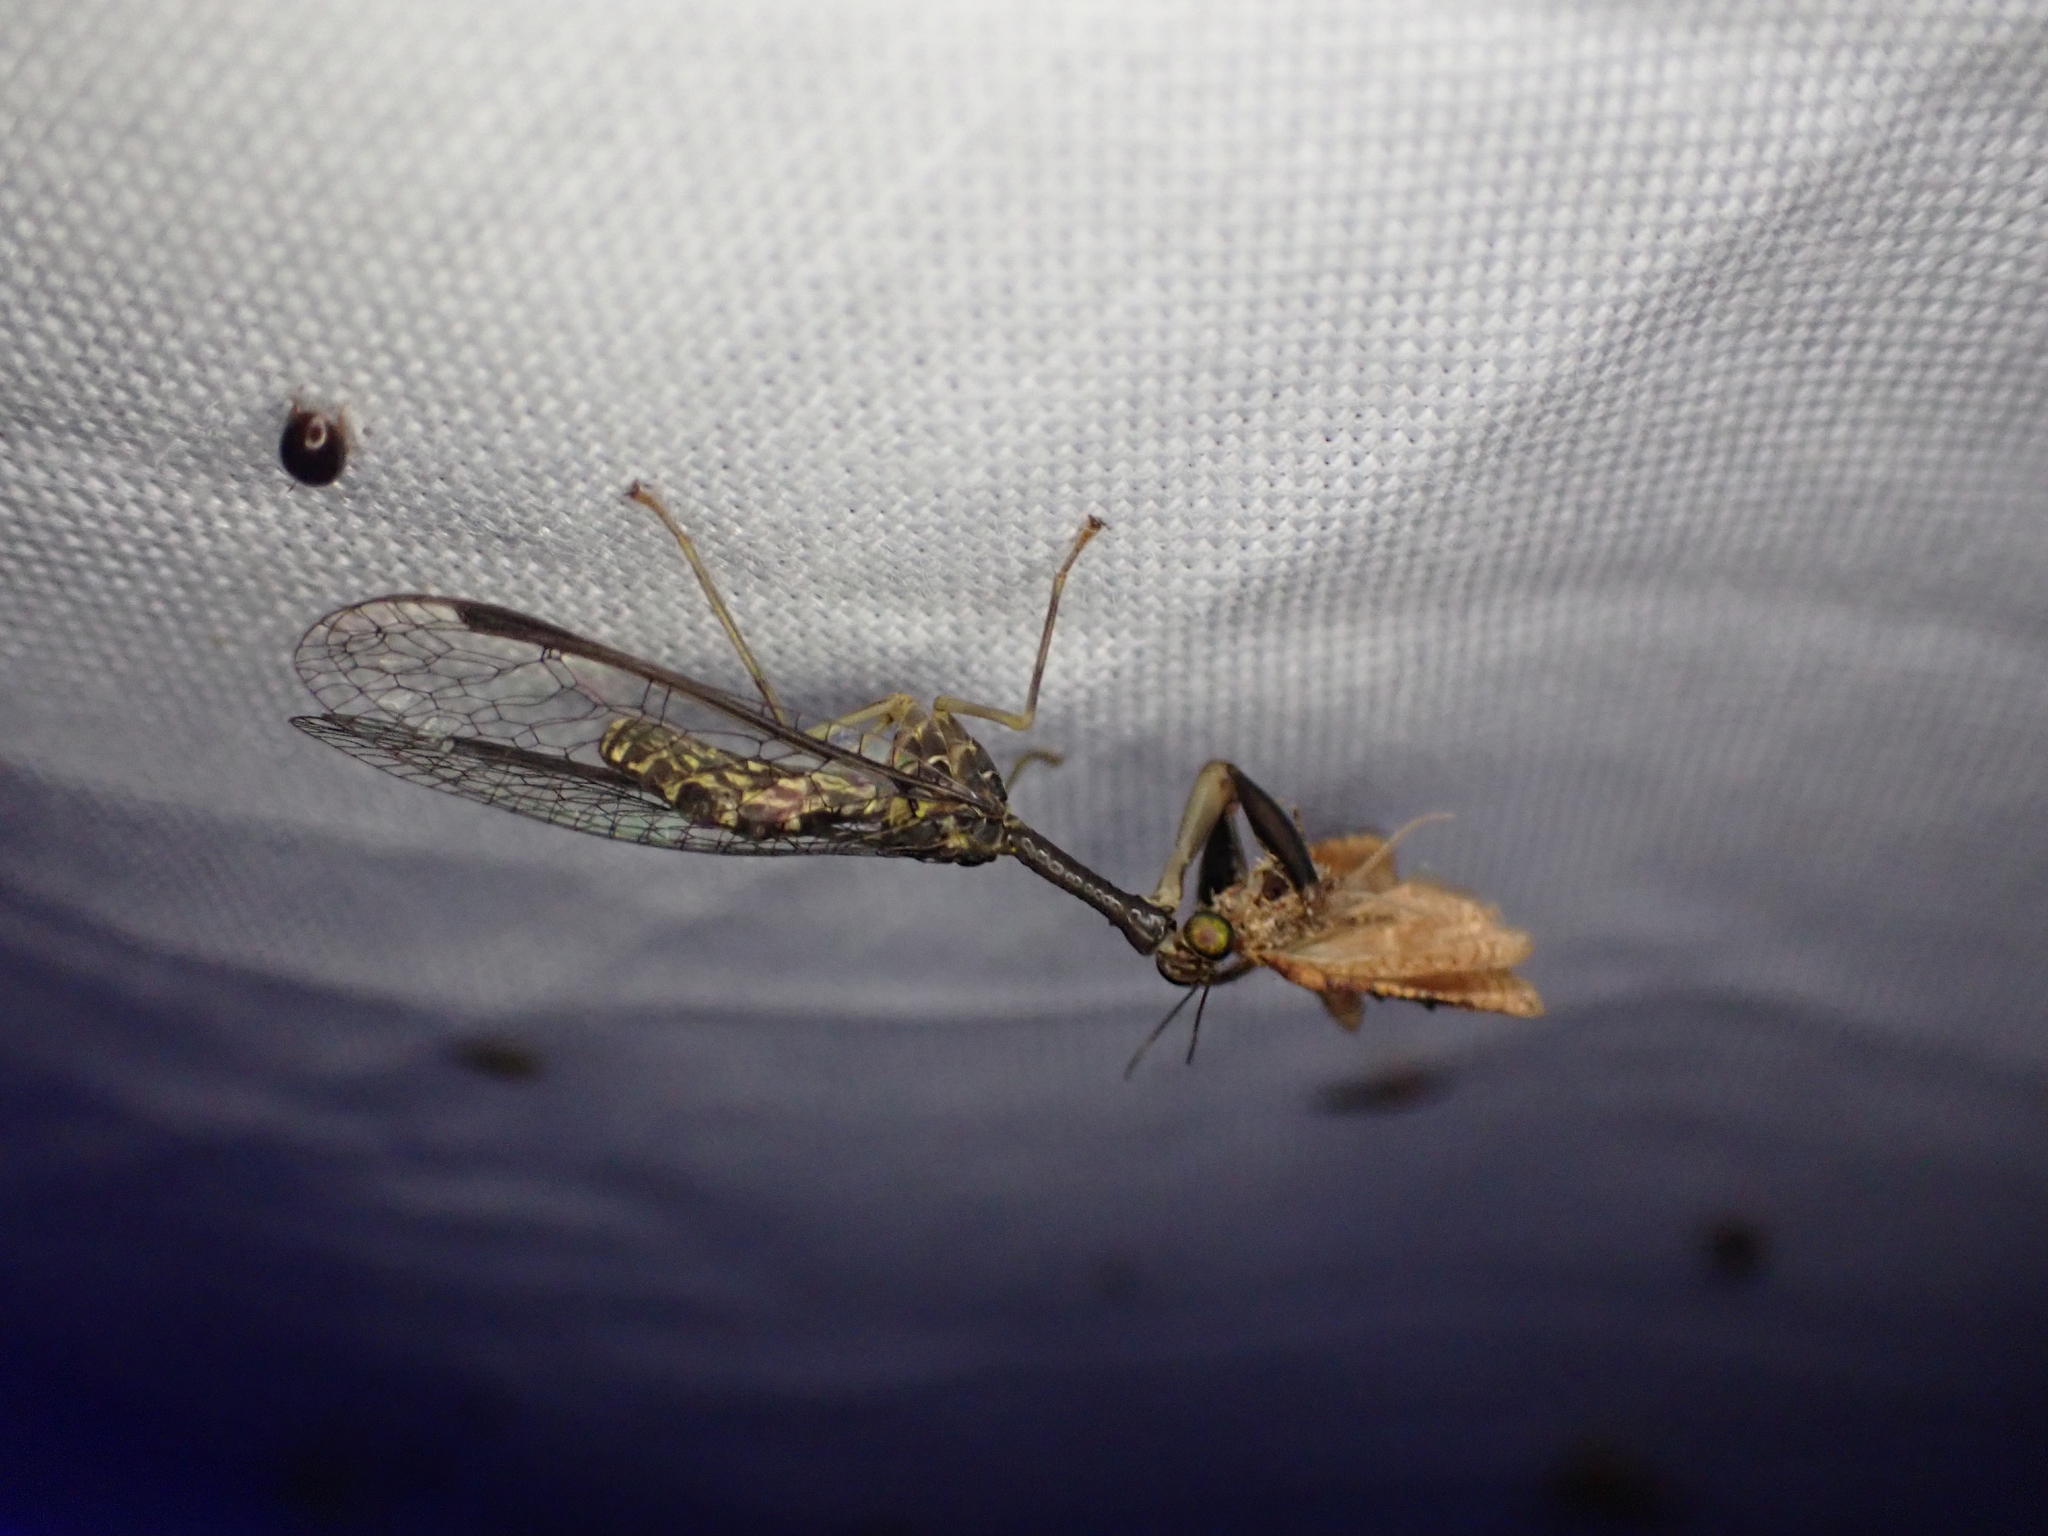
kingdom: Animalia
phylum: Arthropoda
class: Insecta
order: Neuroptera
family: Mantispidae
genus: Dicromantispa
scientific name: Dicromantispa sayi
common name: Say's mantidfly
